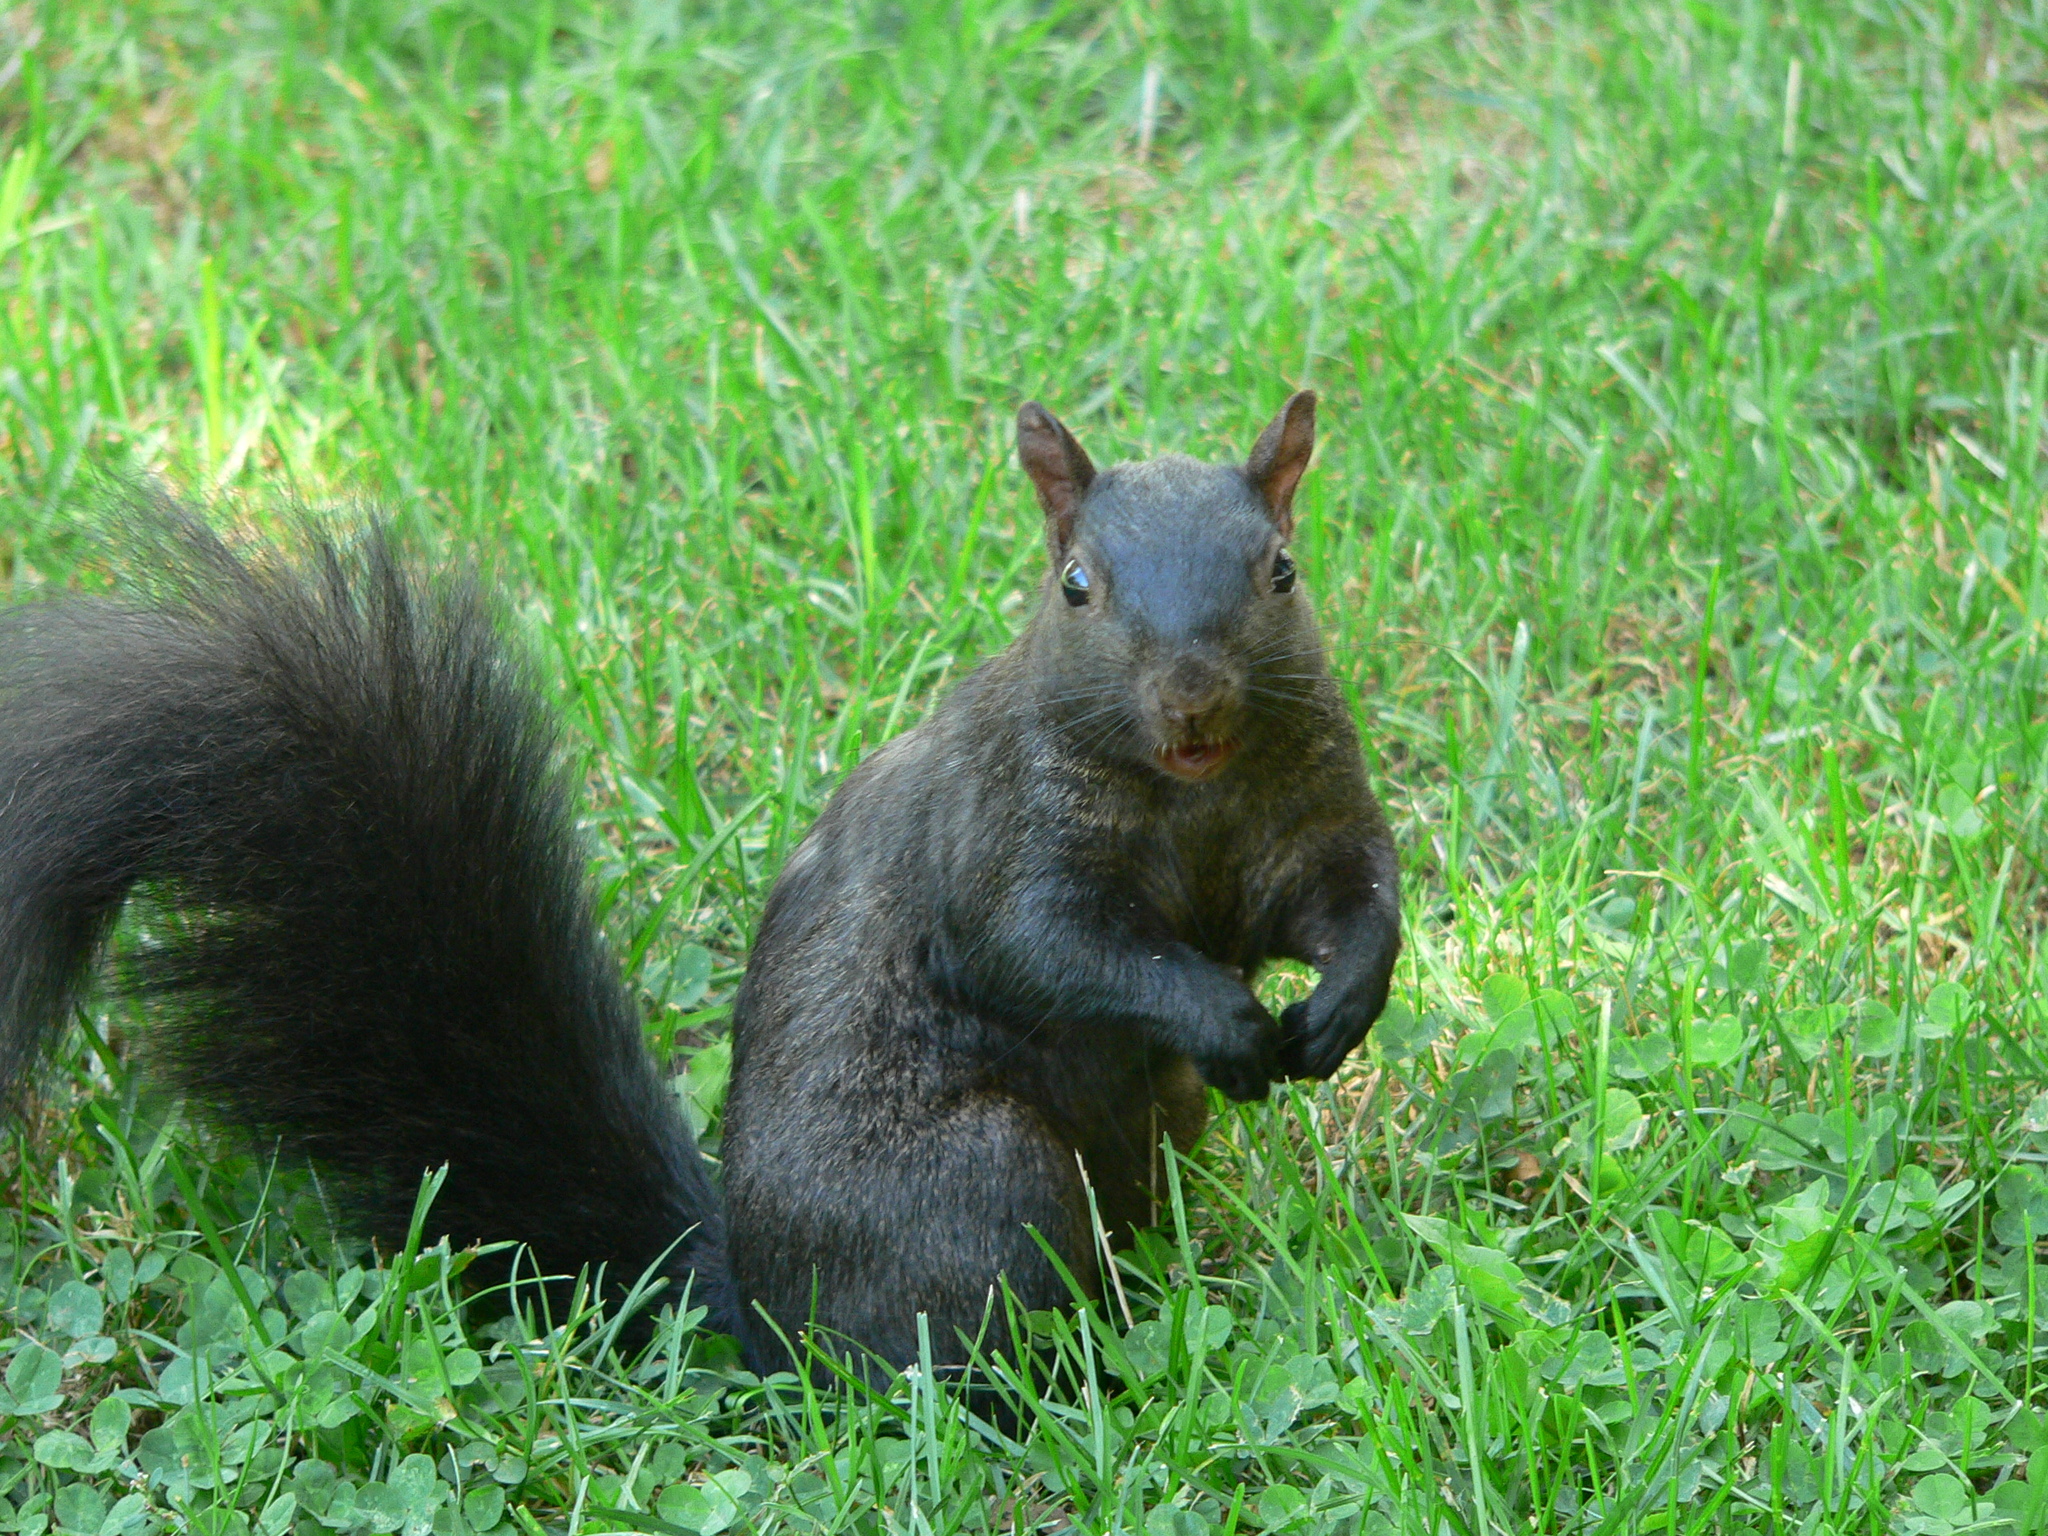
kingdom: Animalia
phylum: Chordata
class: Mammalia
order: Rodentia
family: Sciuridae
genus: Sciurus
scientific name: Sciurus carolinensis
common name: Eastern gray squirrel
